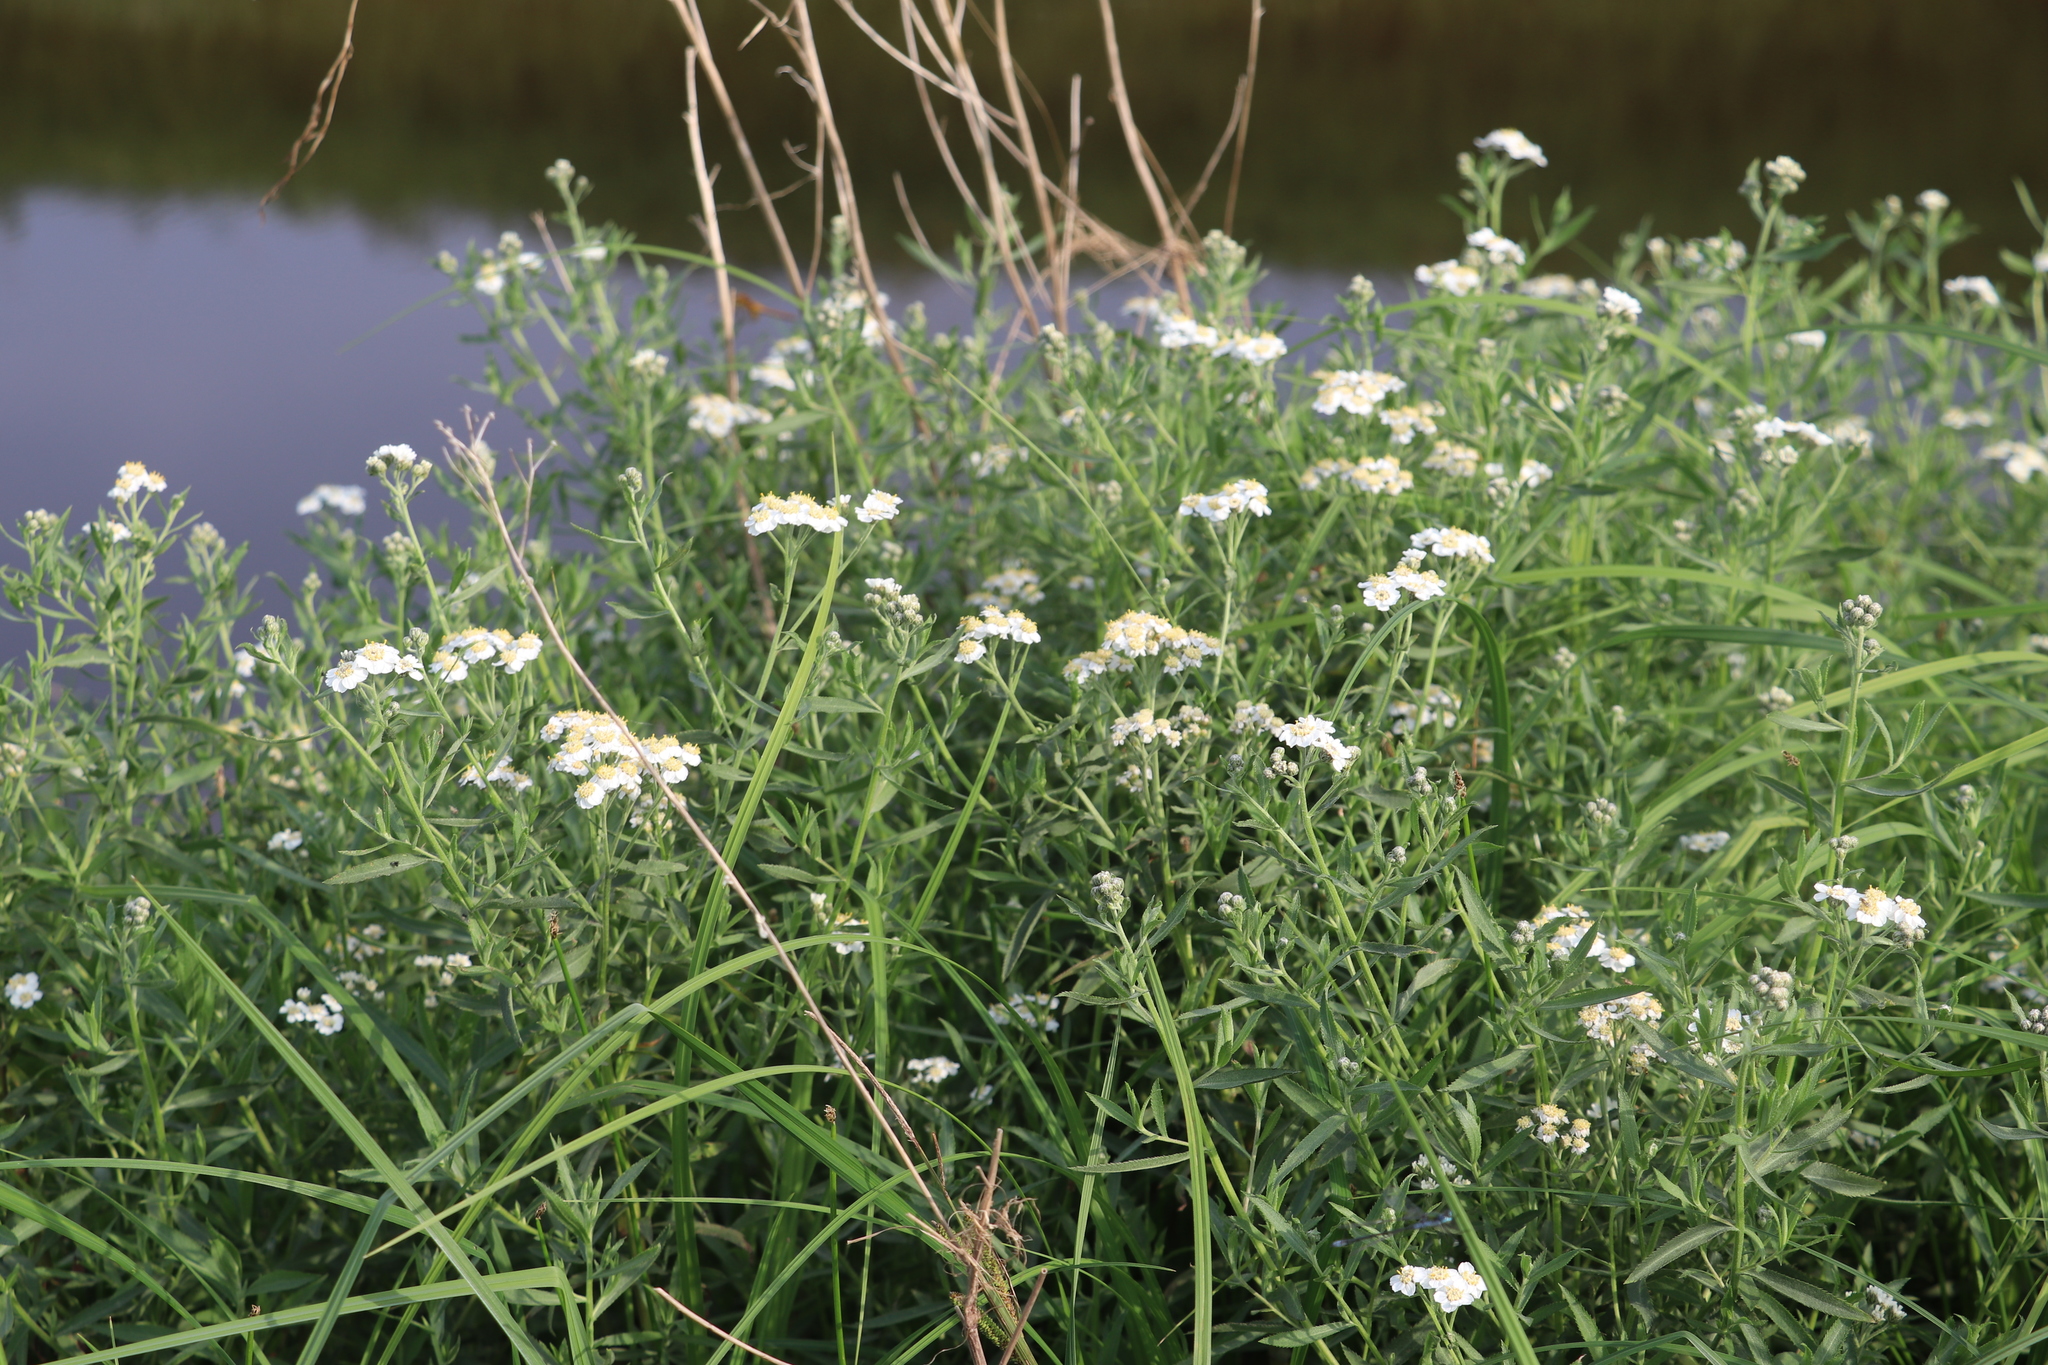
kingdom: Plantae
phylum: Tracheophyta
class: Magnoliopsida
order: Asterales
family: Asteraceae
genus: Achillea
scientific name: Achillea salicifolia
